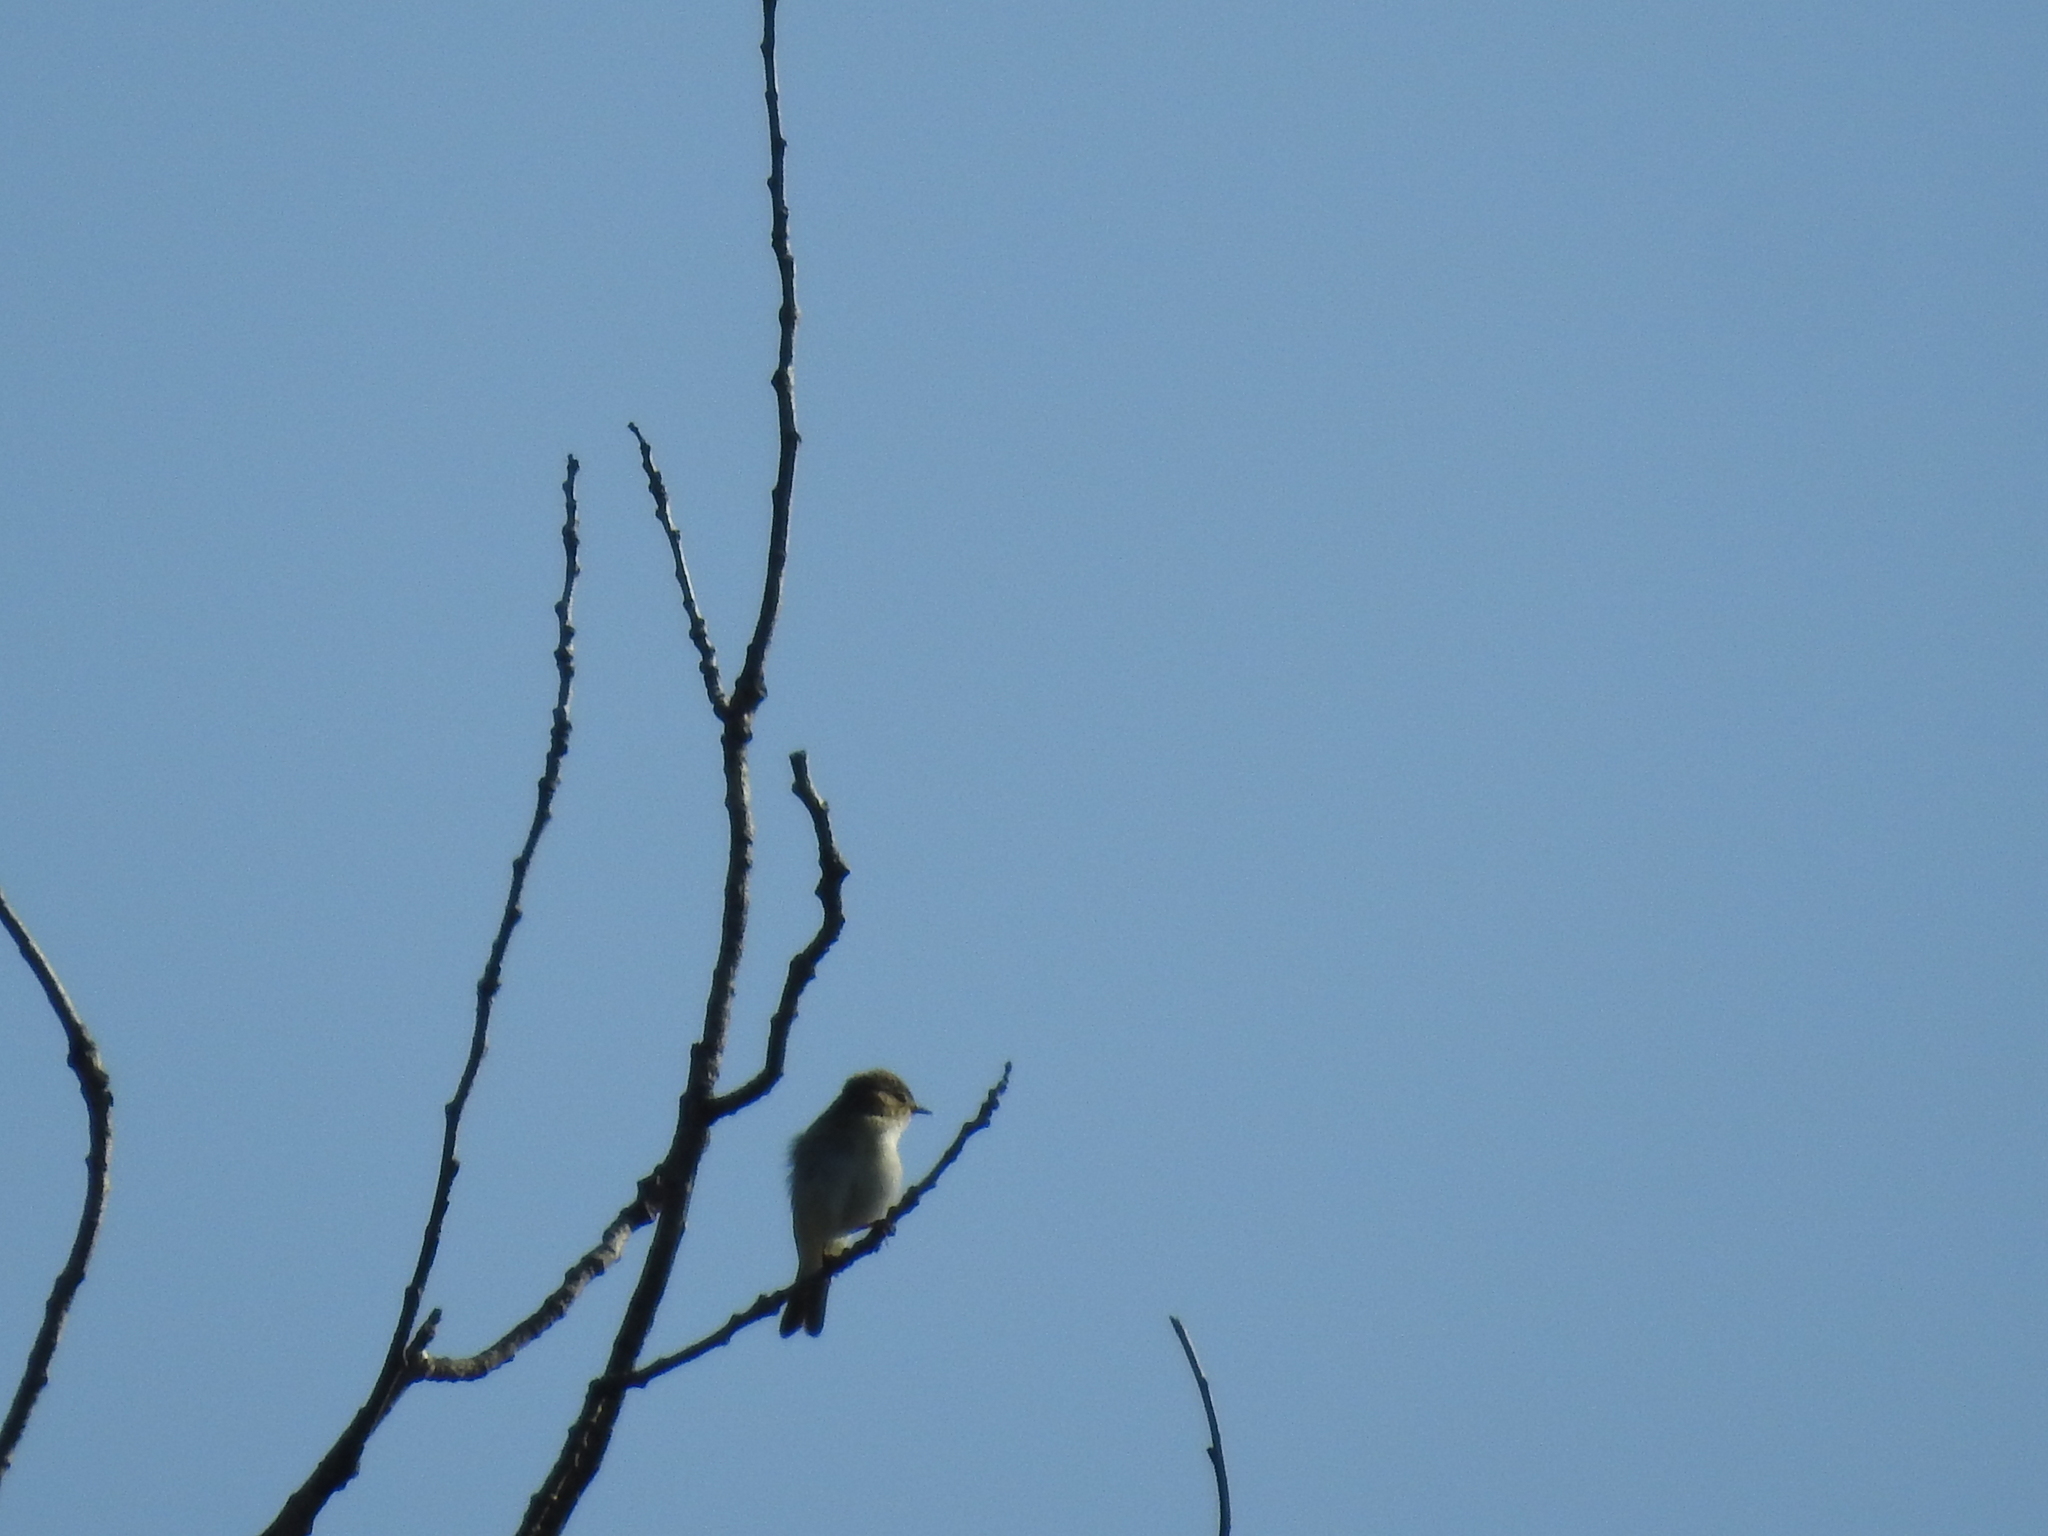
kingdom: Animalia
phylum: Chordata
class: Aves
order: Passeriformes
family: Phylloscopidae
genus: Phylloscopus
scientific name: Phylloscopus trochilus
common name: Willow warbler
